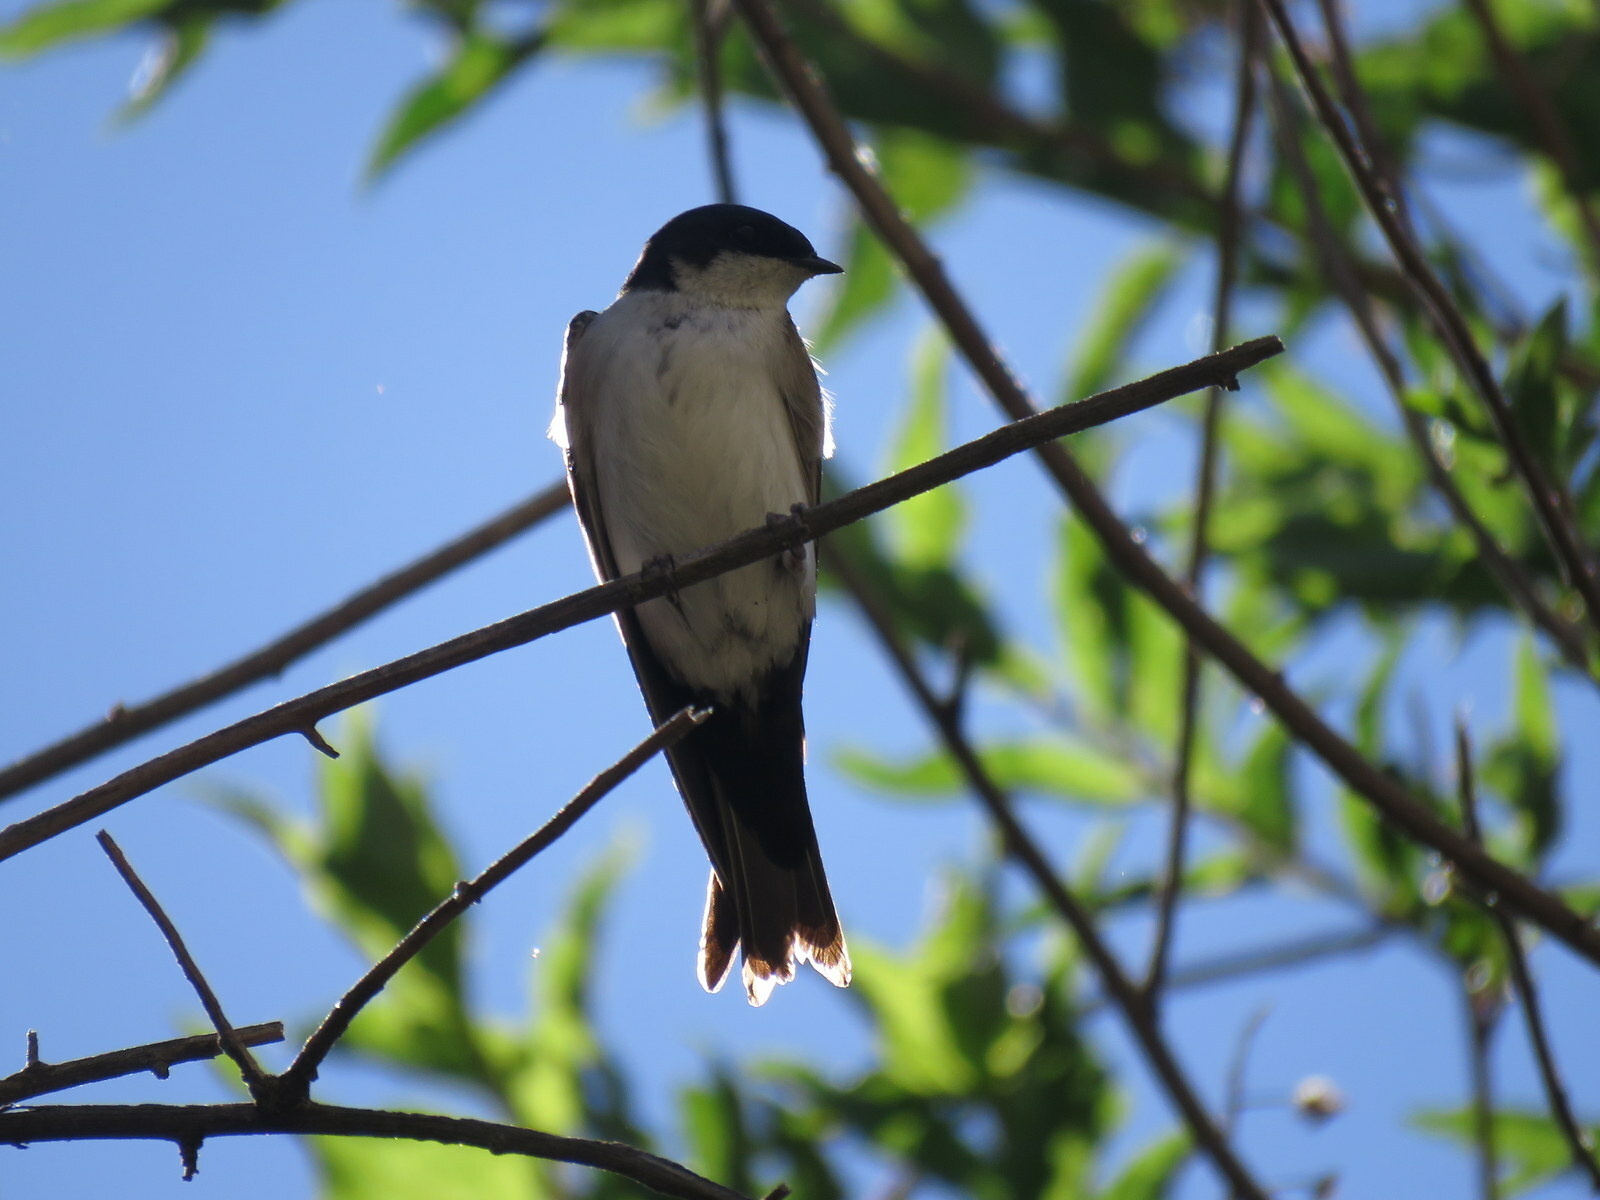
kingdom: Animalia
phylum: Chordata
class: Aves
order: Passeriformes
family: Hirundinidae
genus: Notiochelidon
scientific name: Notiochelidon cyanoleuca
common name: Blue-and-white swallow
